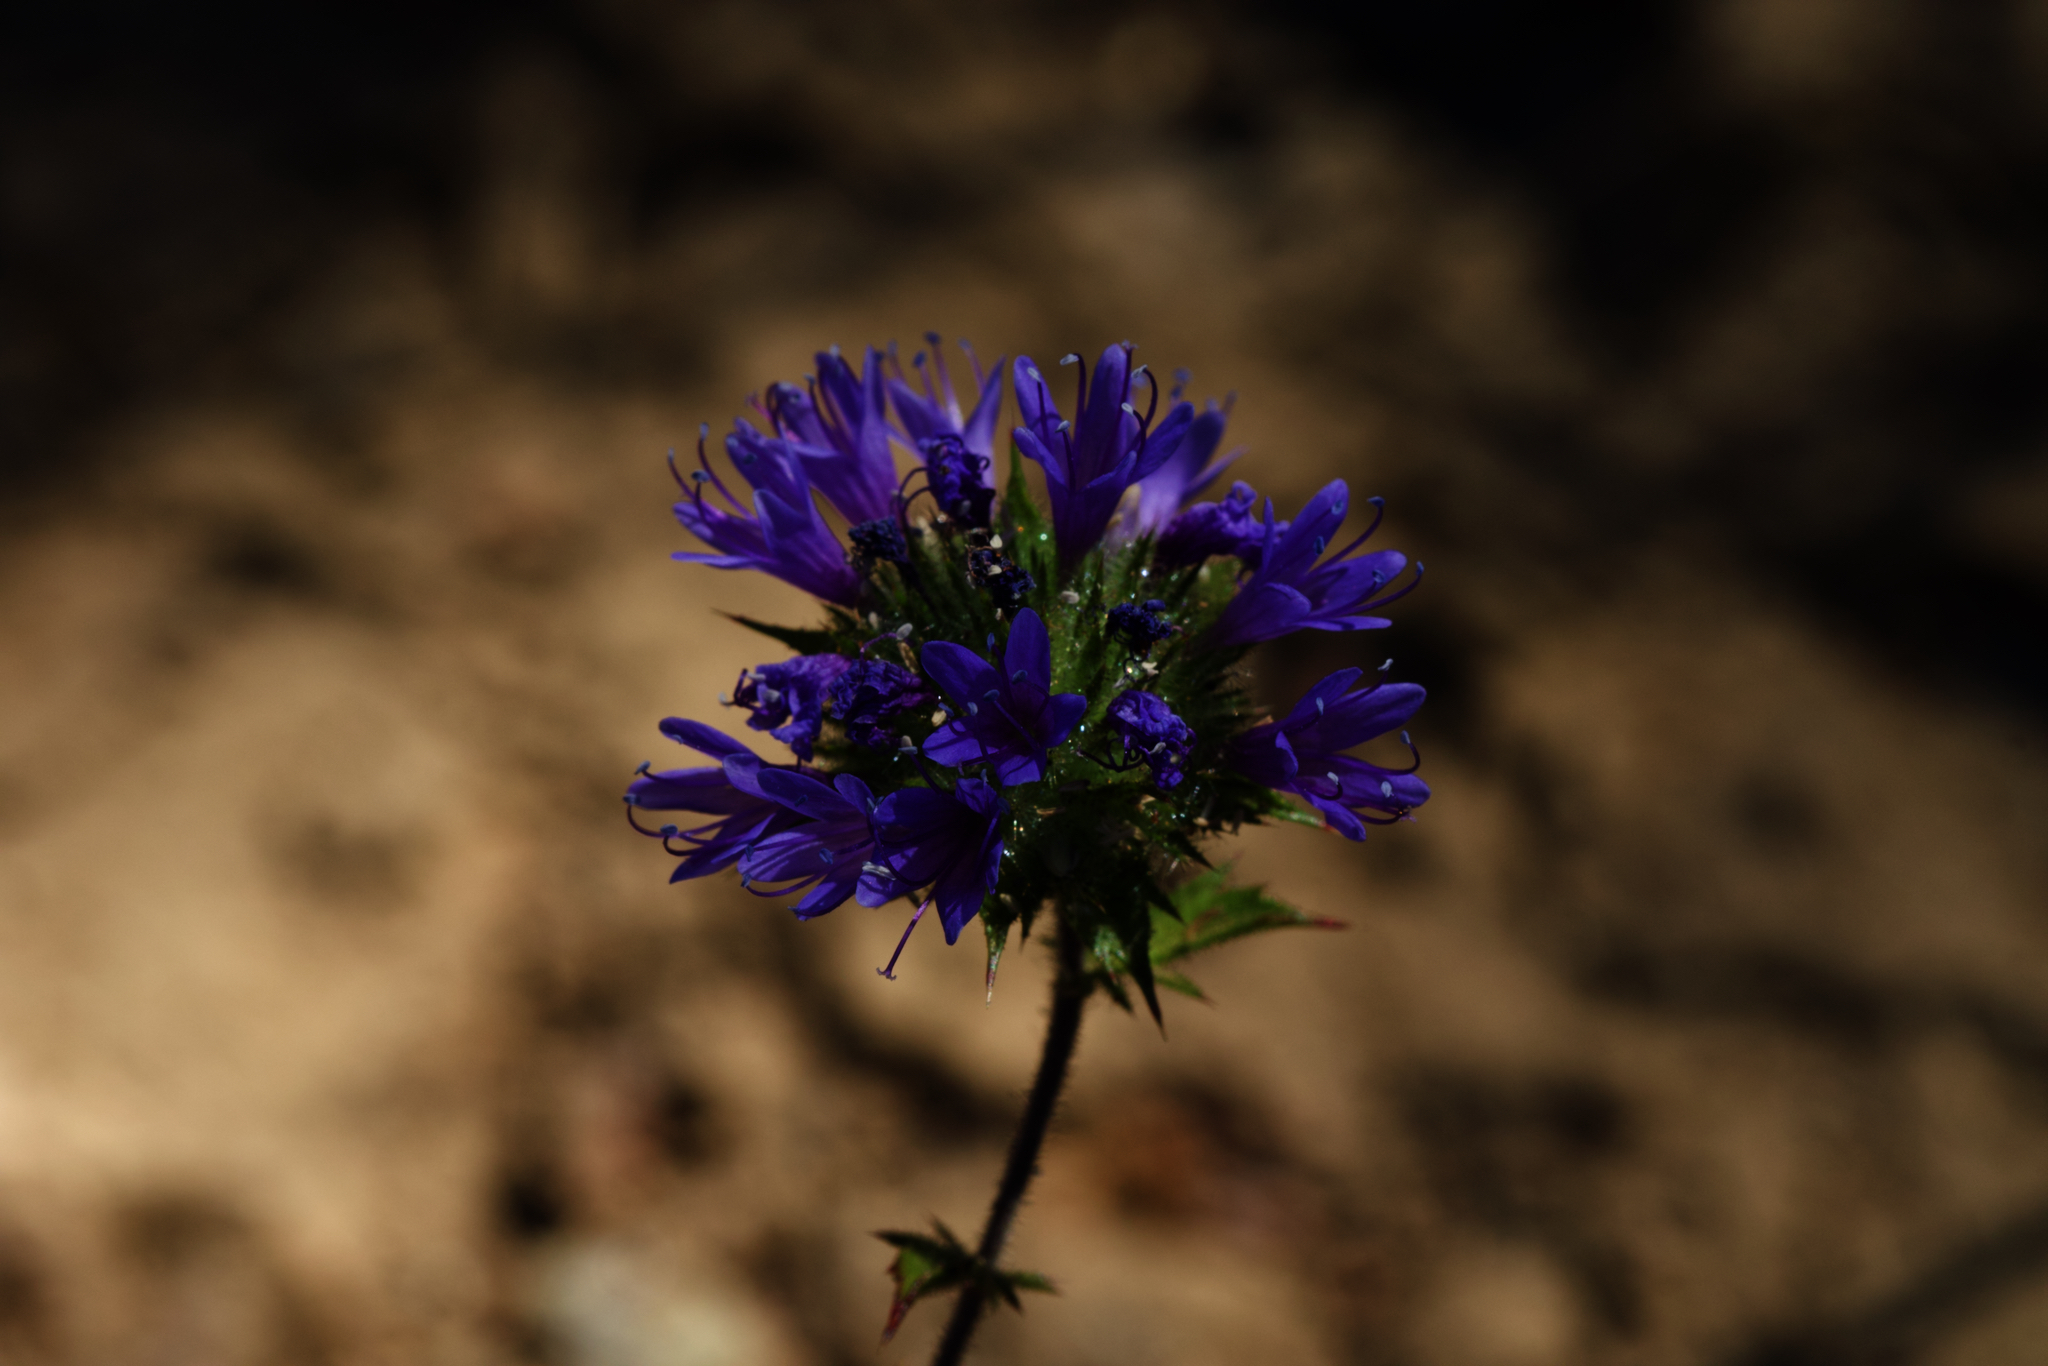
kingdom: Plantae
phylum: Tracheophyta
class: Magnoliopsida
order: Ericales
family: Polemoniaceae
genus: Navarretia
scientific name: Navarretia heterodoxa
